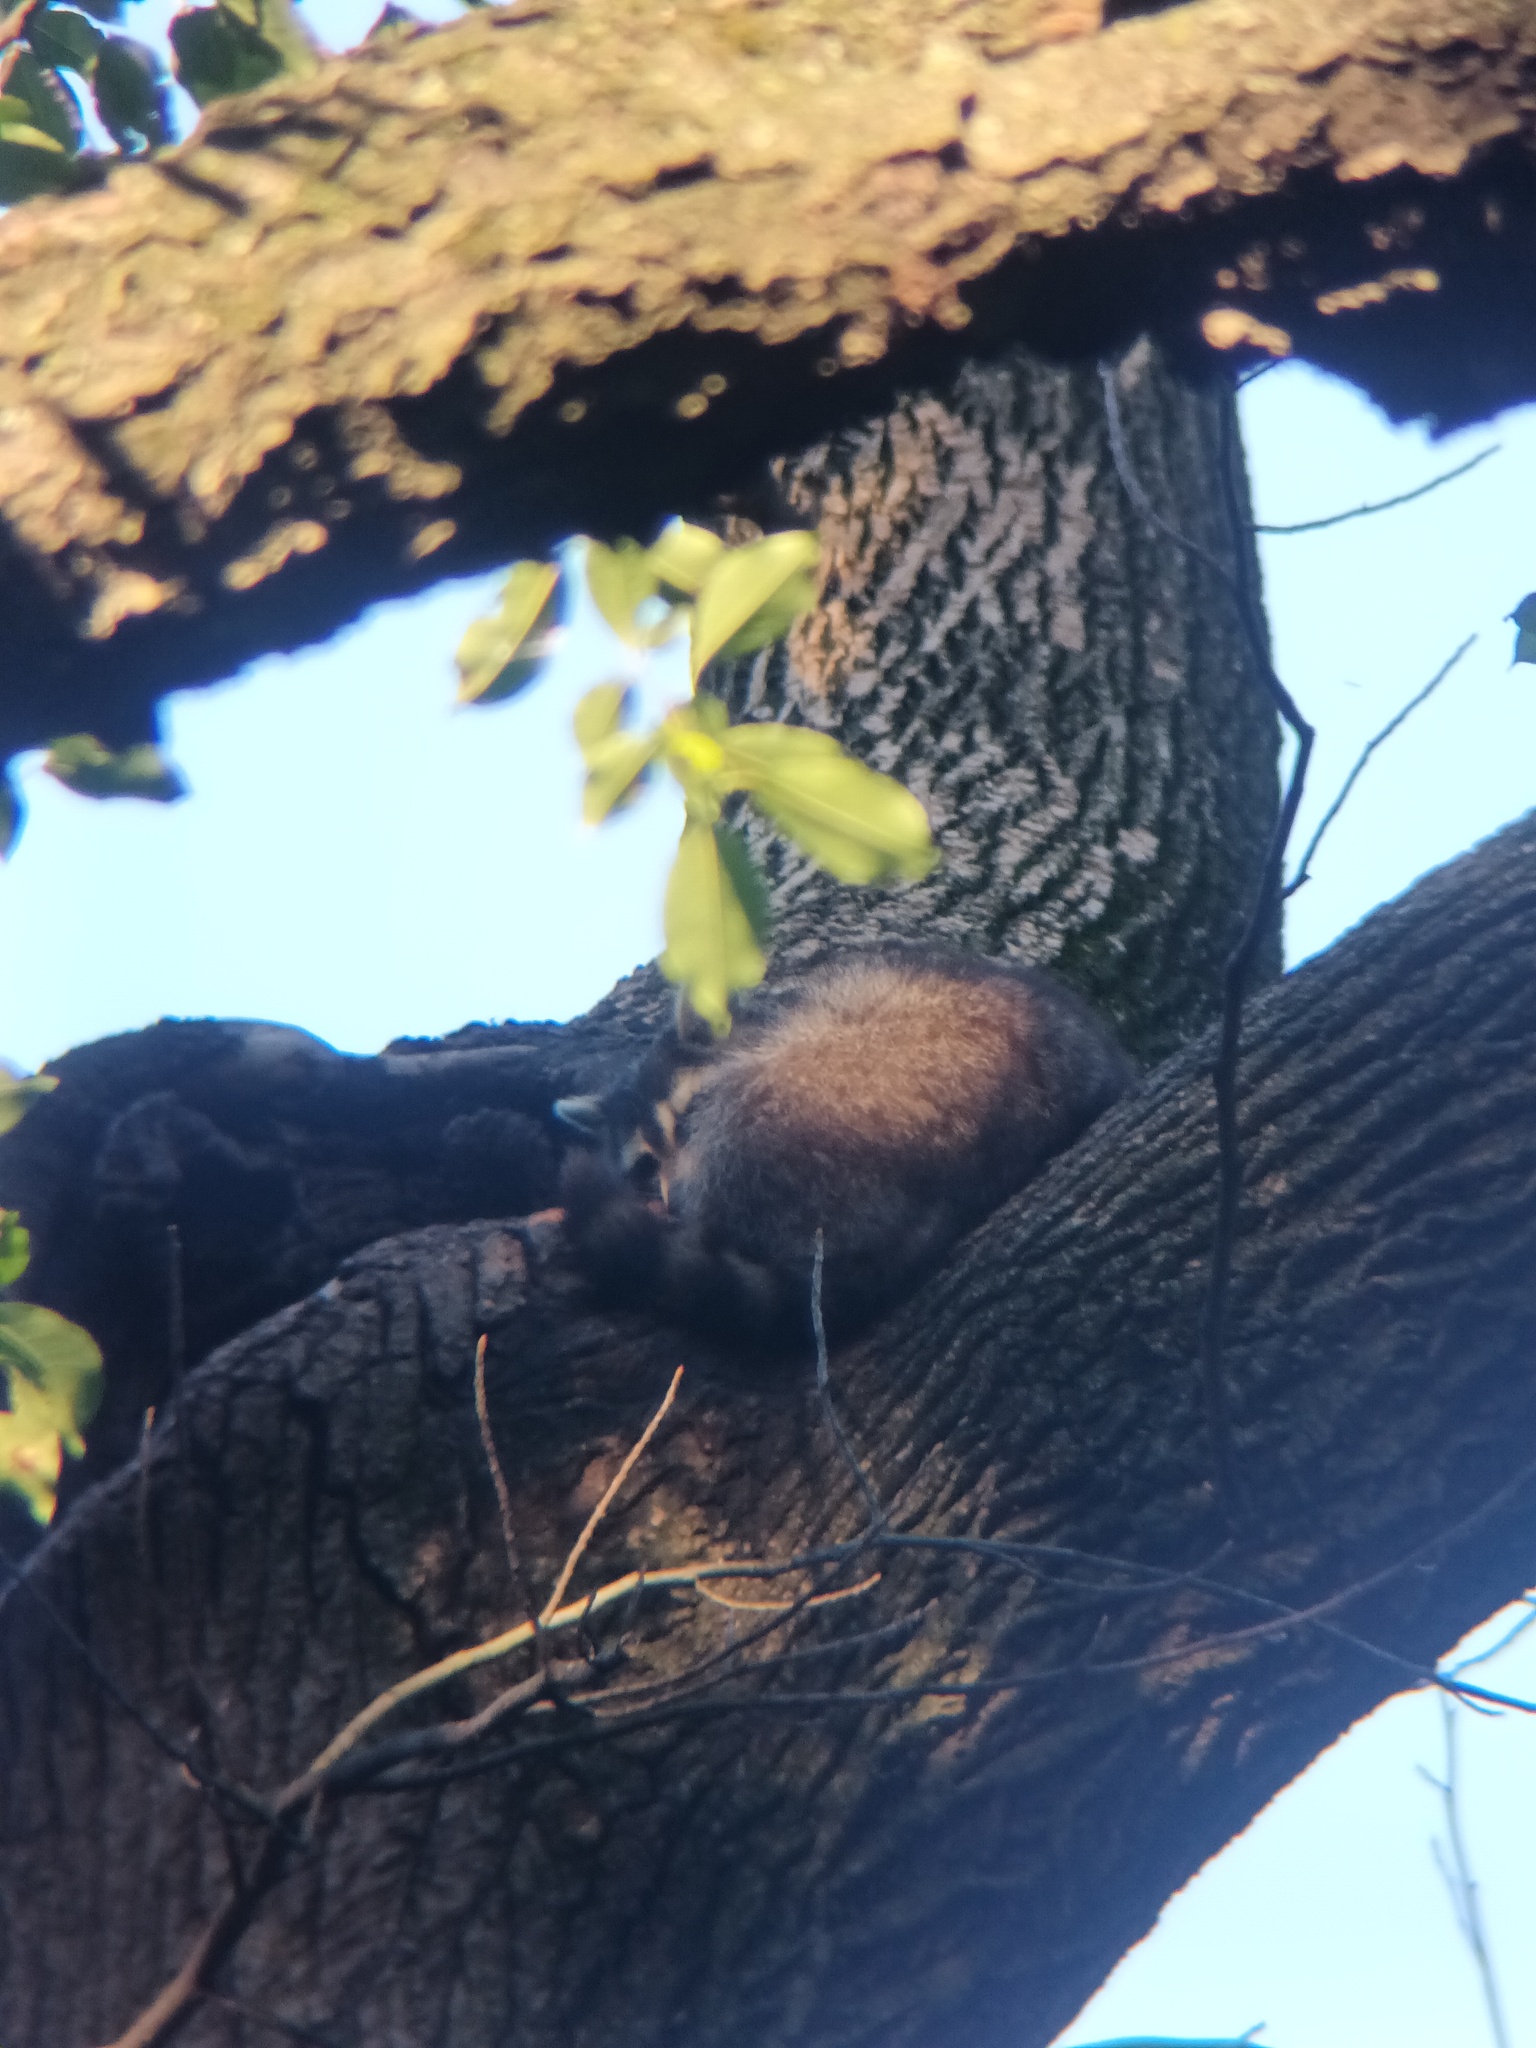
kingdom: Animalia
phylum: Chordata
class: Mammalia
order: Carnivora
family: Procyonidae
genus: Procyon
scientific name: Procyon lotor
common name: Raccoon
